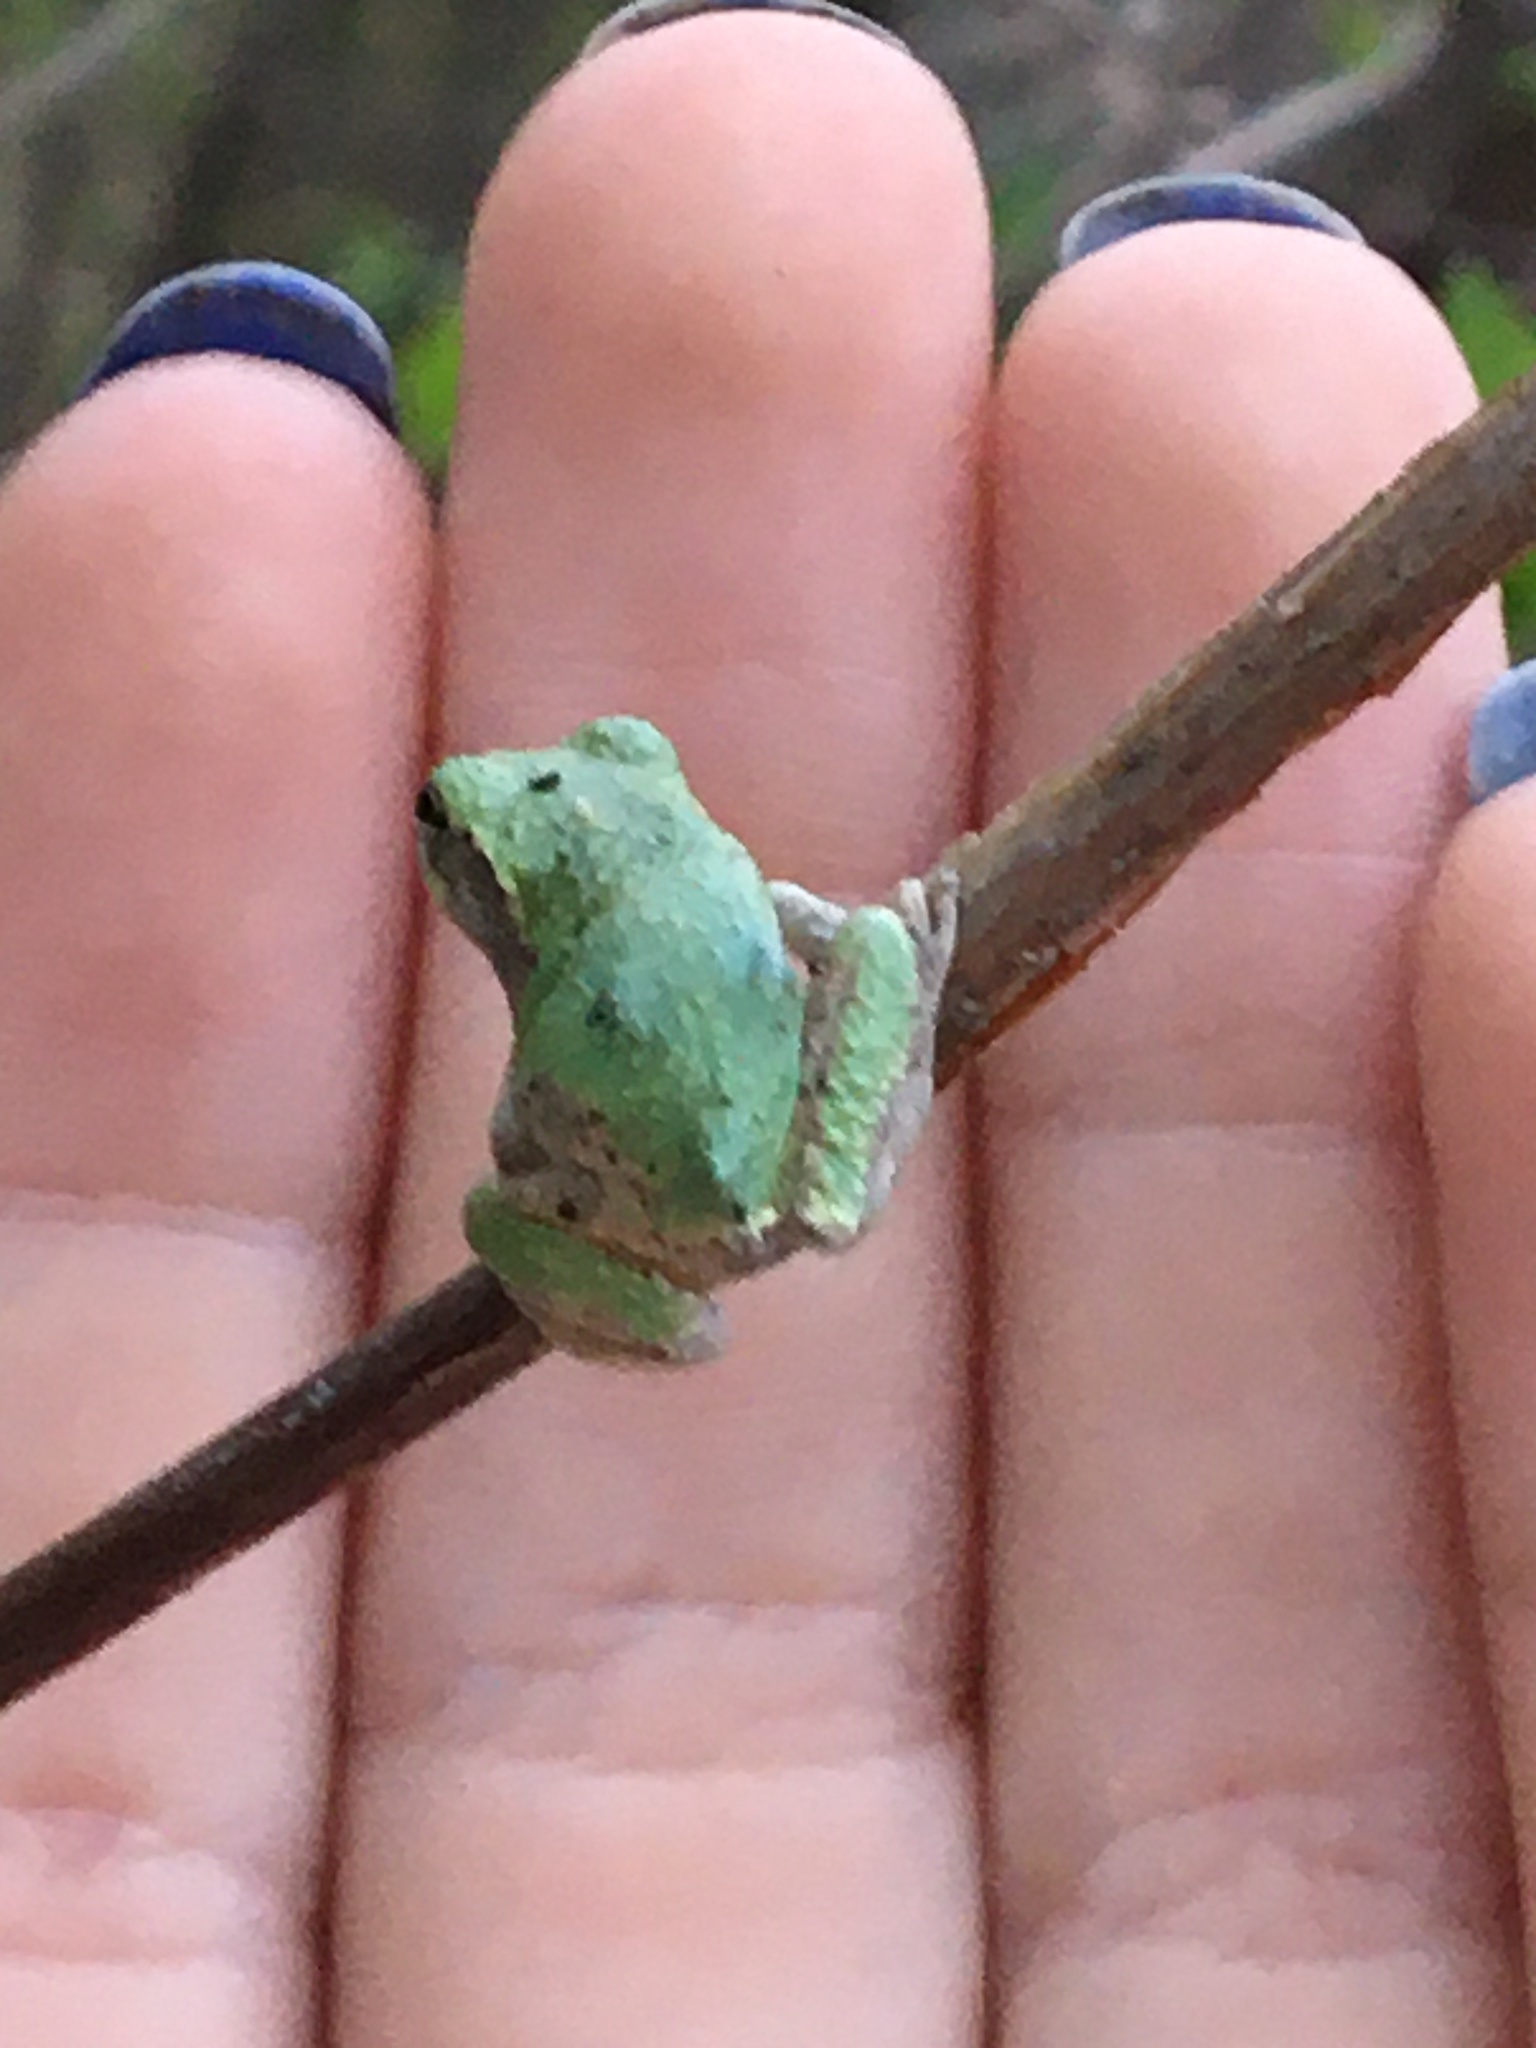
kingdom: Animalia
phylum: Chordata
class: Amphibia
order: Anura
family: Hylidae
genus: Dryophytes
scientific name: Dryophytes versicolor
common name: Gray treefrog
